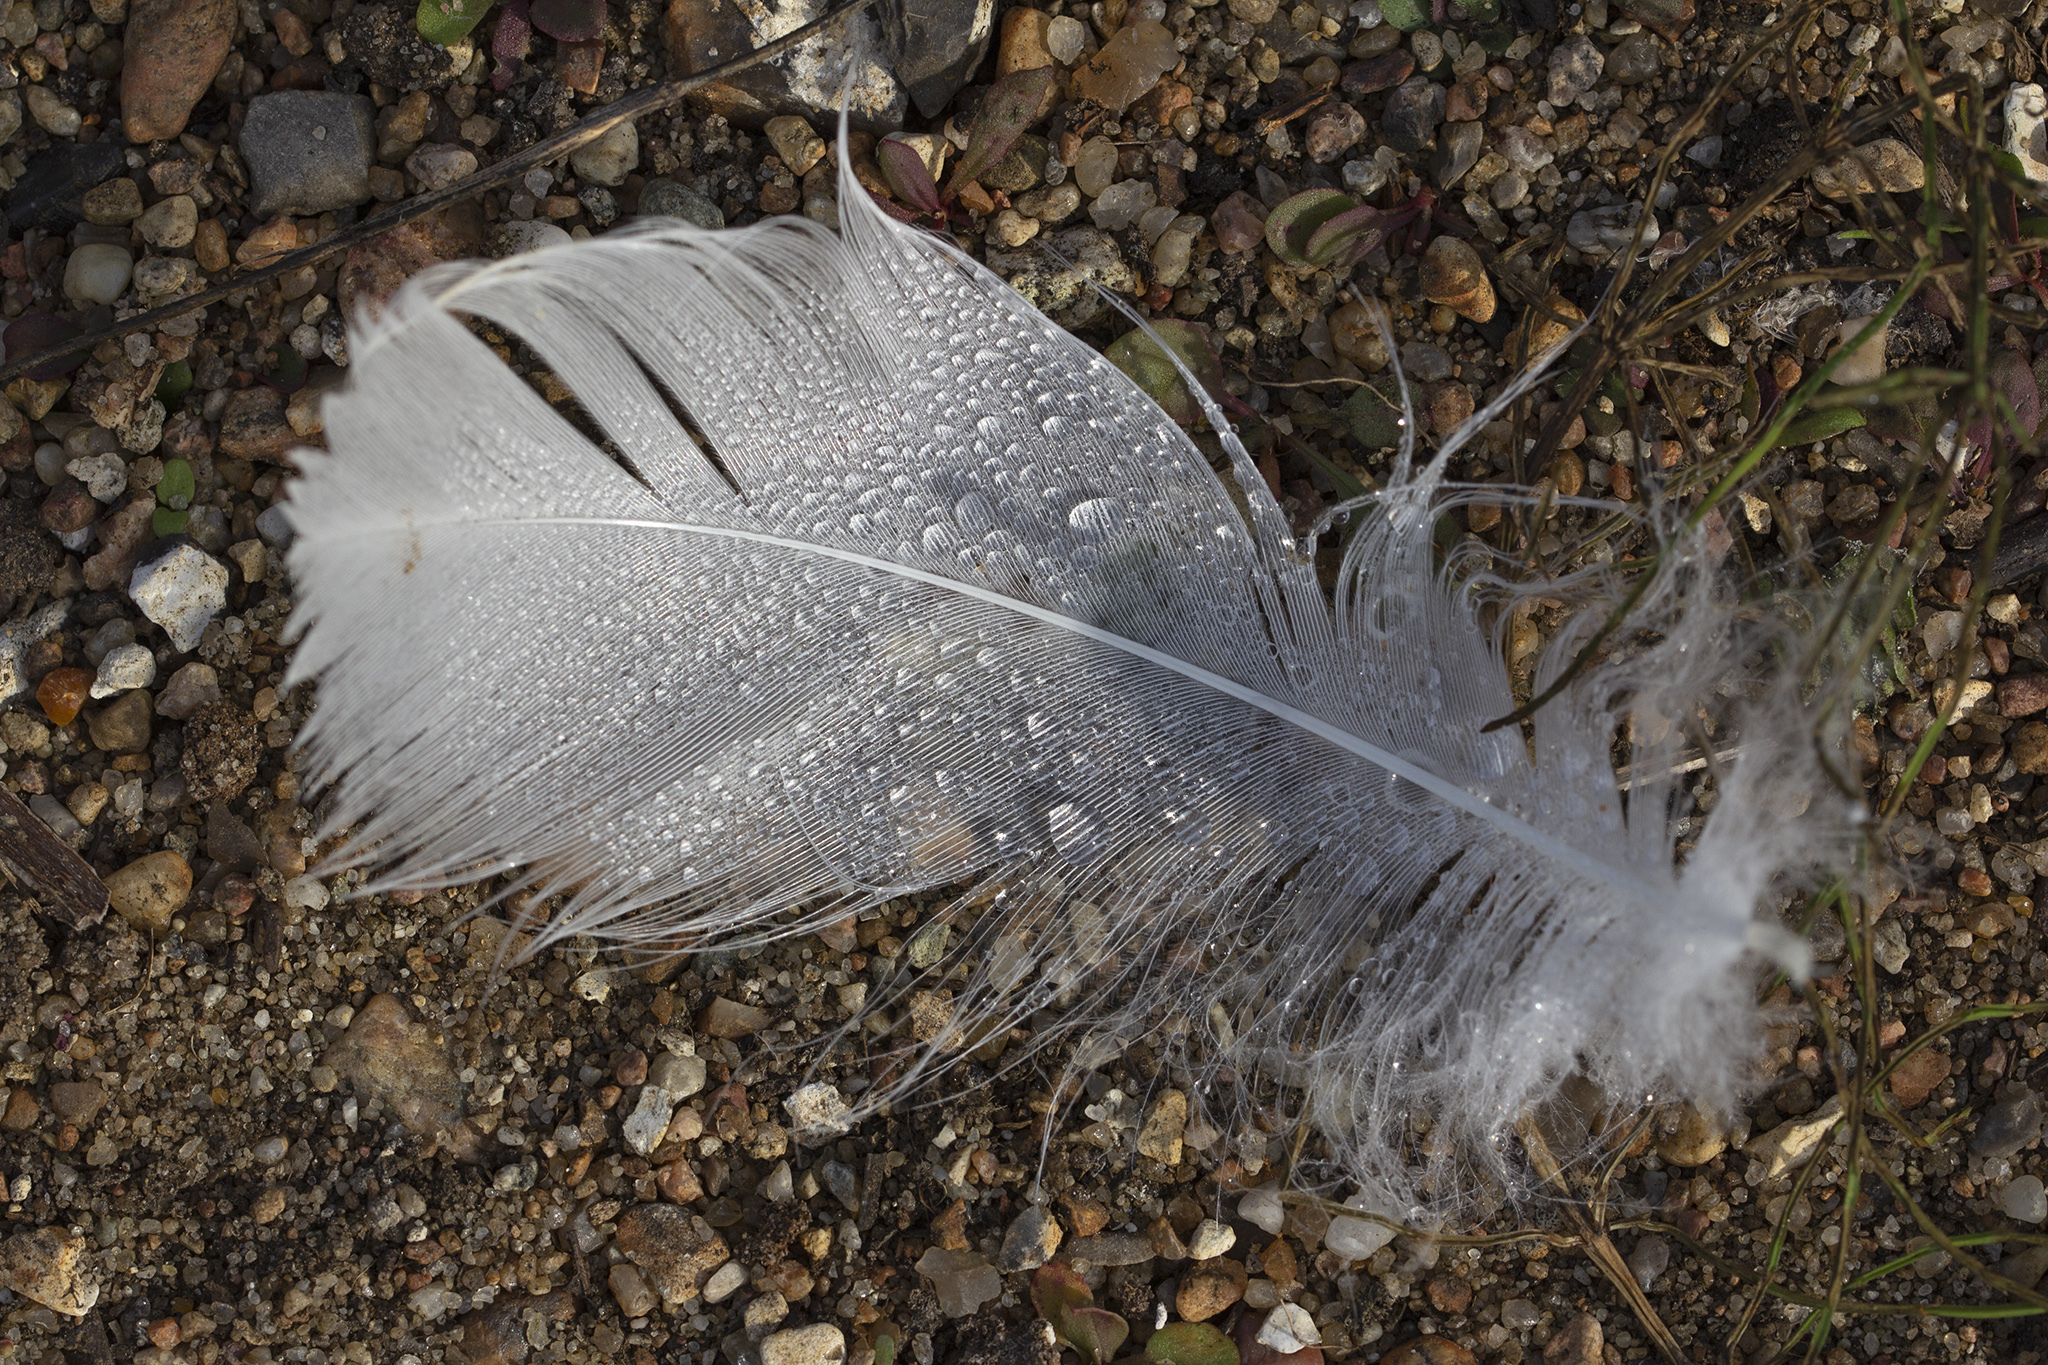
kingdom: Animalia
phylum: Chordata
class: Aves
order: Anseriformes
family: Anatidae
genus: Cygnus
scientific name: Cygnus olor
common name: Mute swan
